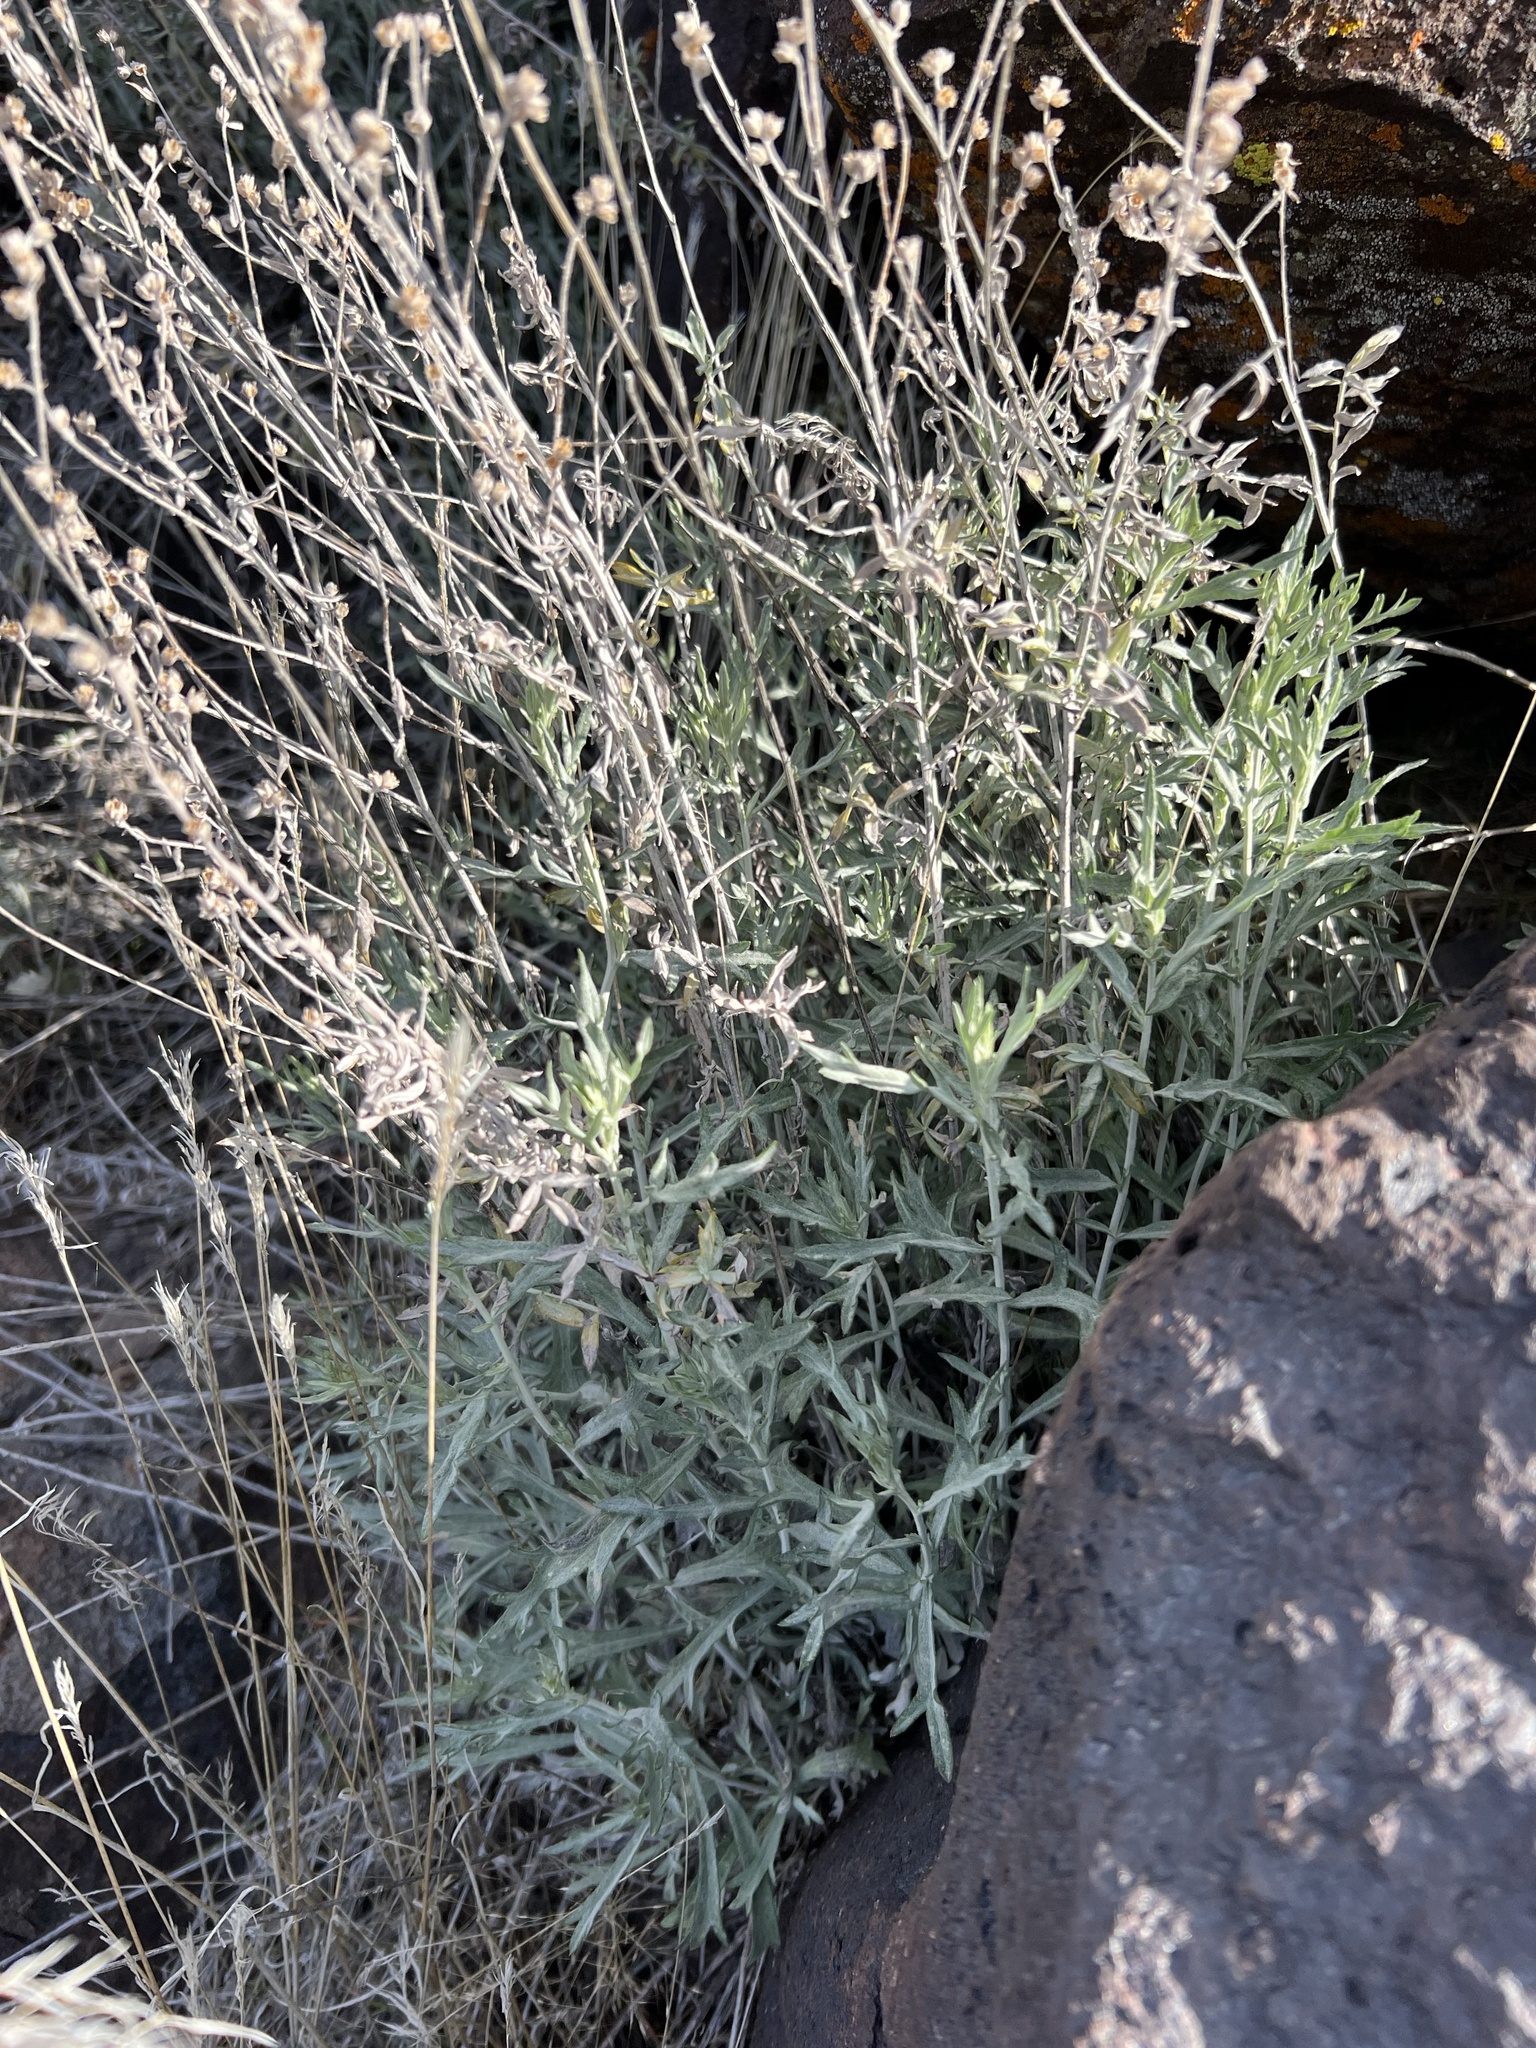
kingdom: Plantae
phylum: Tracheophyta
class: Magnoliopsida
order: Asterales
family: Asteraceae
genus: Artemisia
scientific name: Artemisia ludoviciana
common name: Western mugwort
